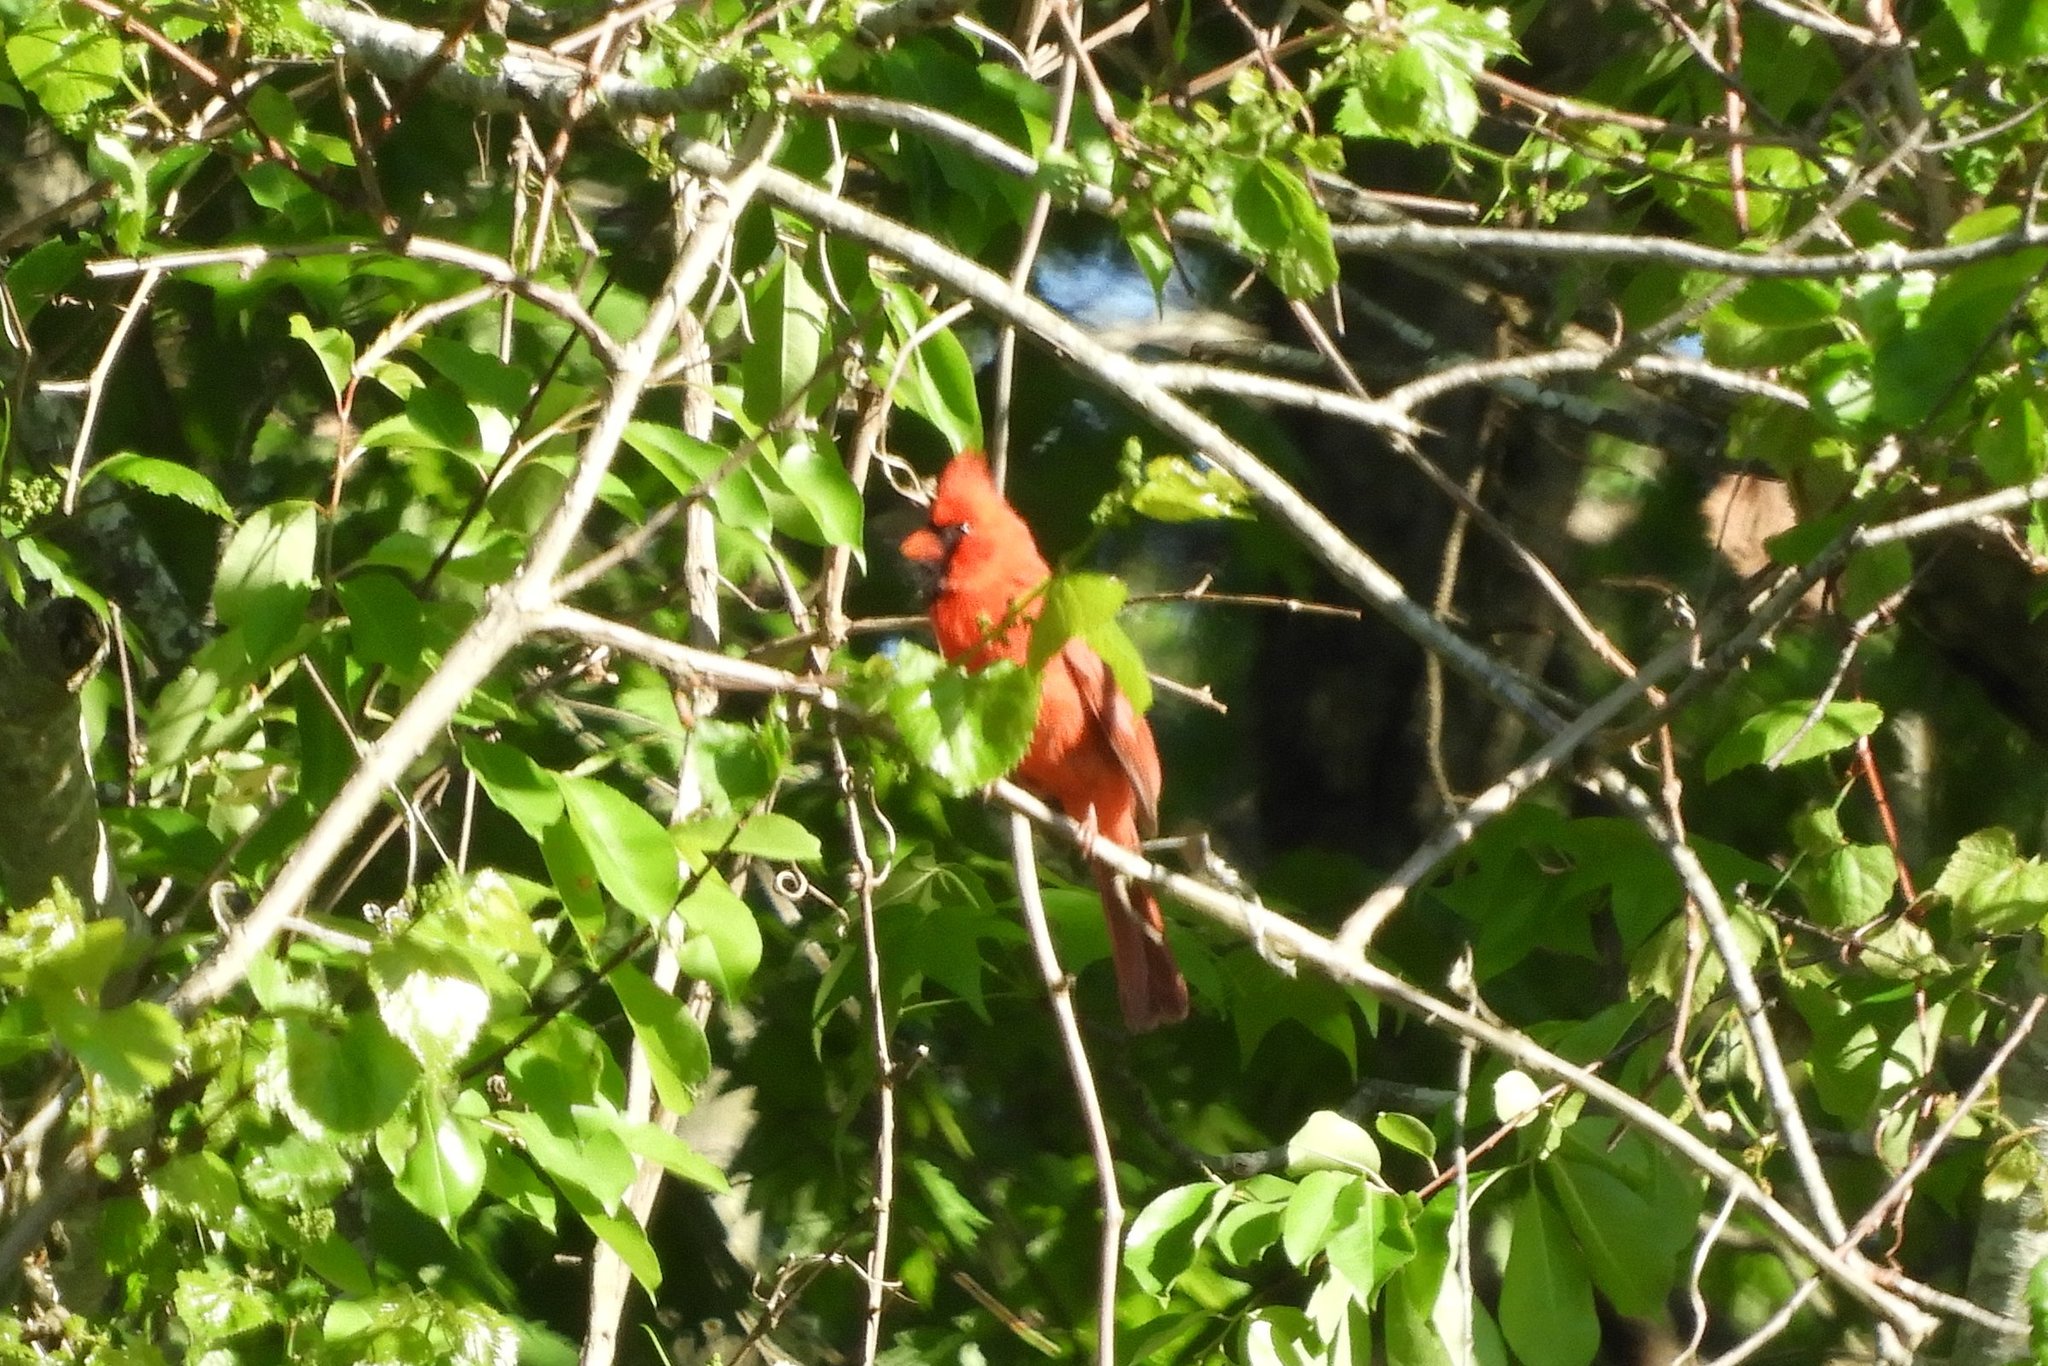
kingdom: Animalia
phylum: Chordata
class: Aves
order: Passeriformes
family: Cardinalidae
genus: Cardinalis
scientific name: Cardinalis cardinalis
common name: Northern cardinal
